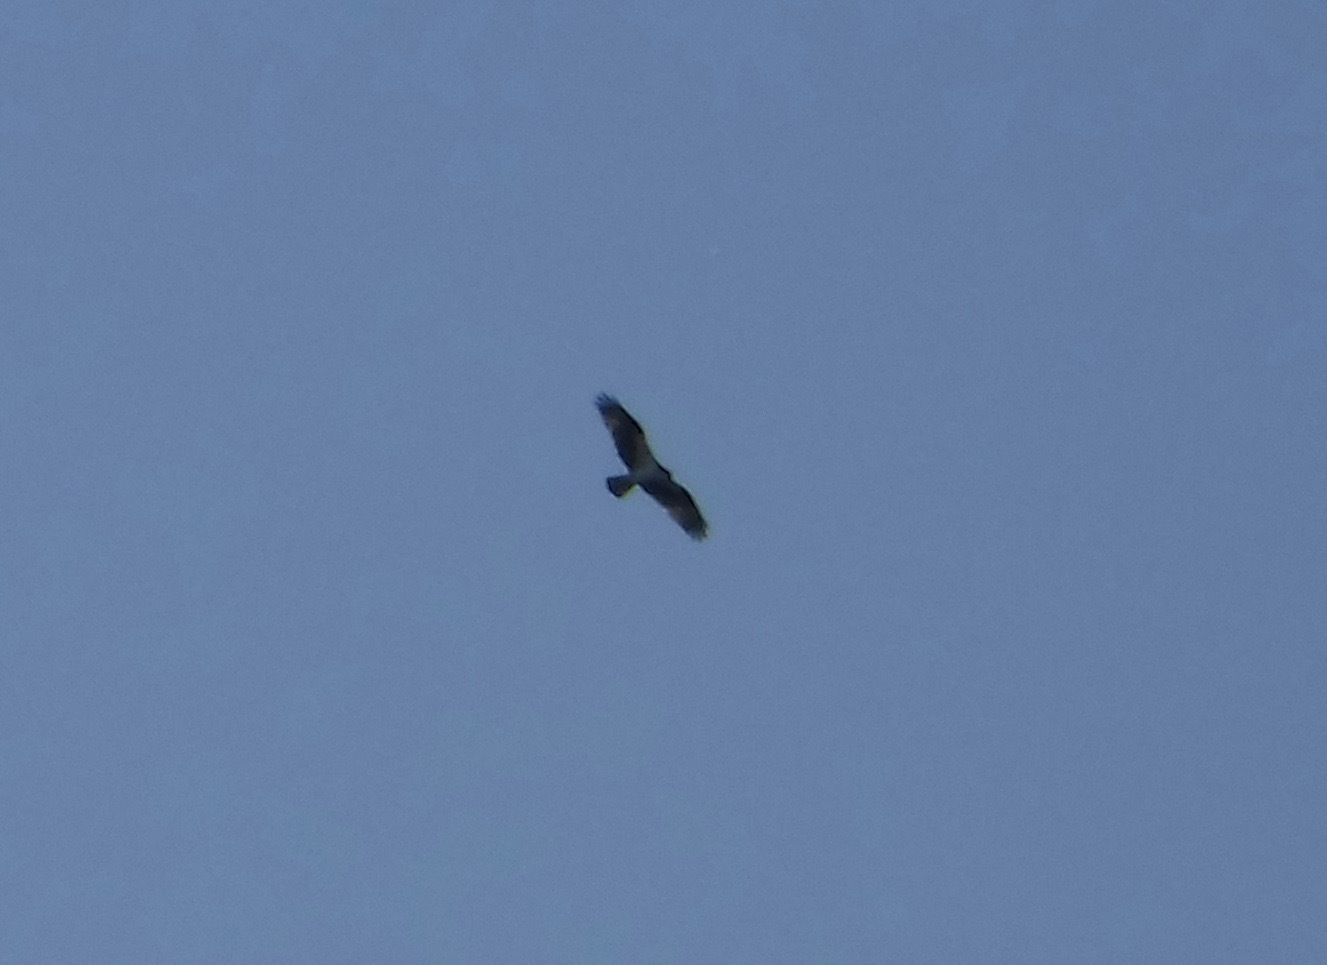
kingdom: Animalia
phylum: Chordata
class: Aves
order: Accipitriformes
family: Pandionidae
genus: Pandion
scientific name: Pandion haliaetus
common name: Osprey
